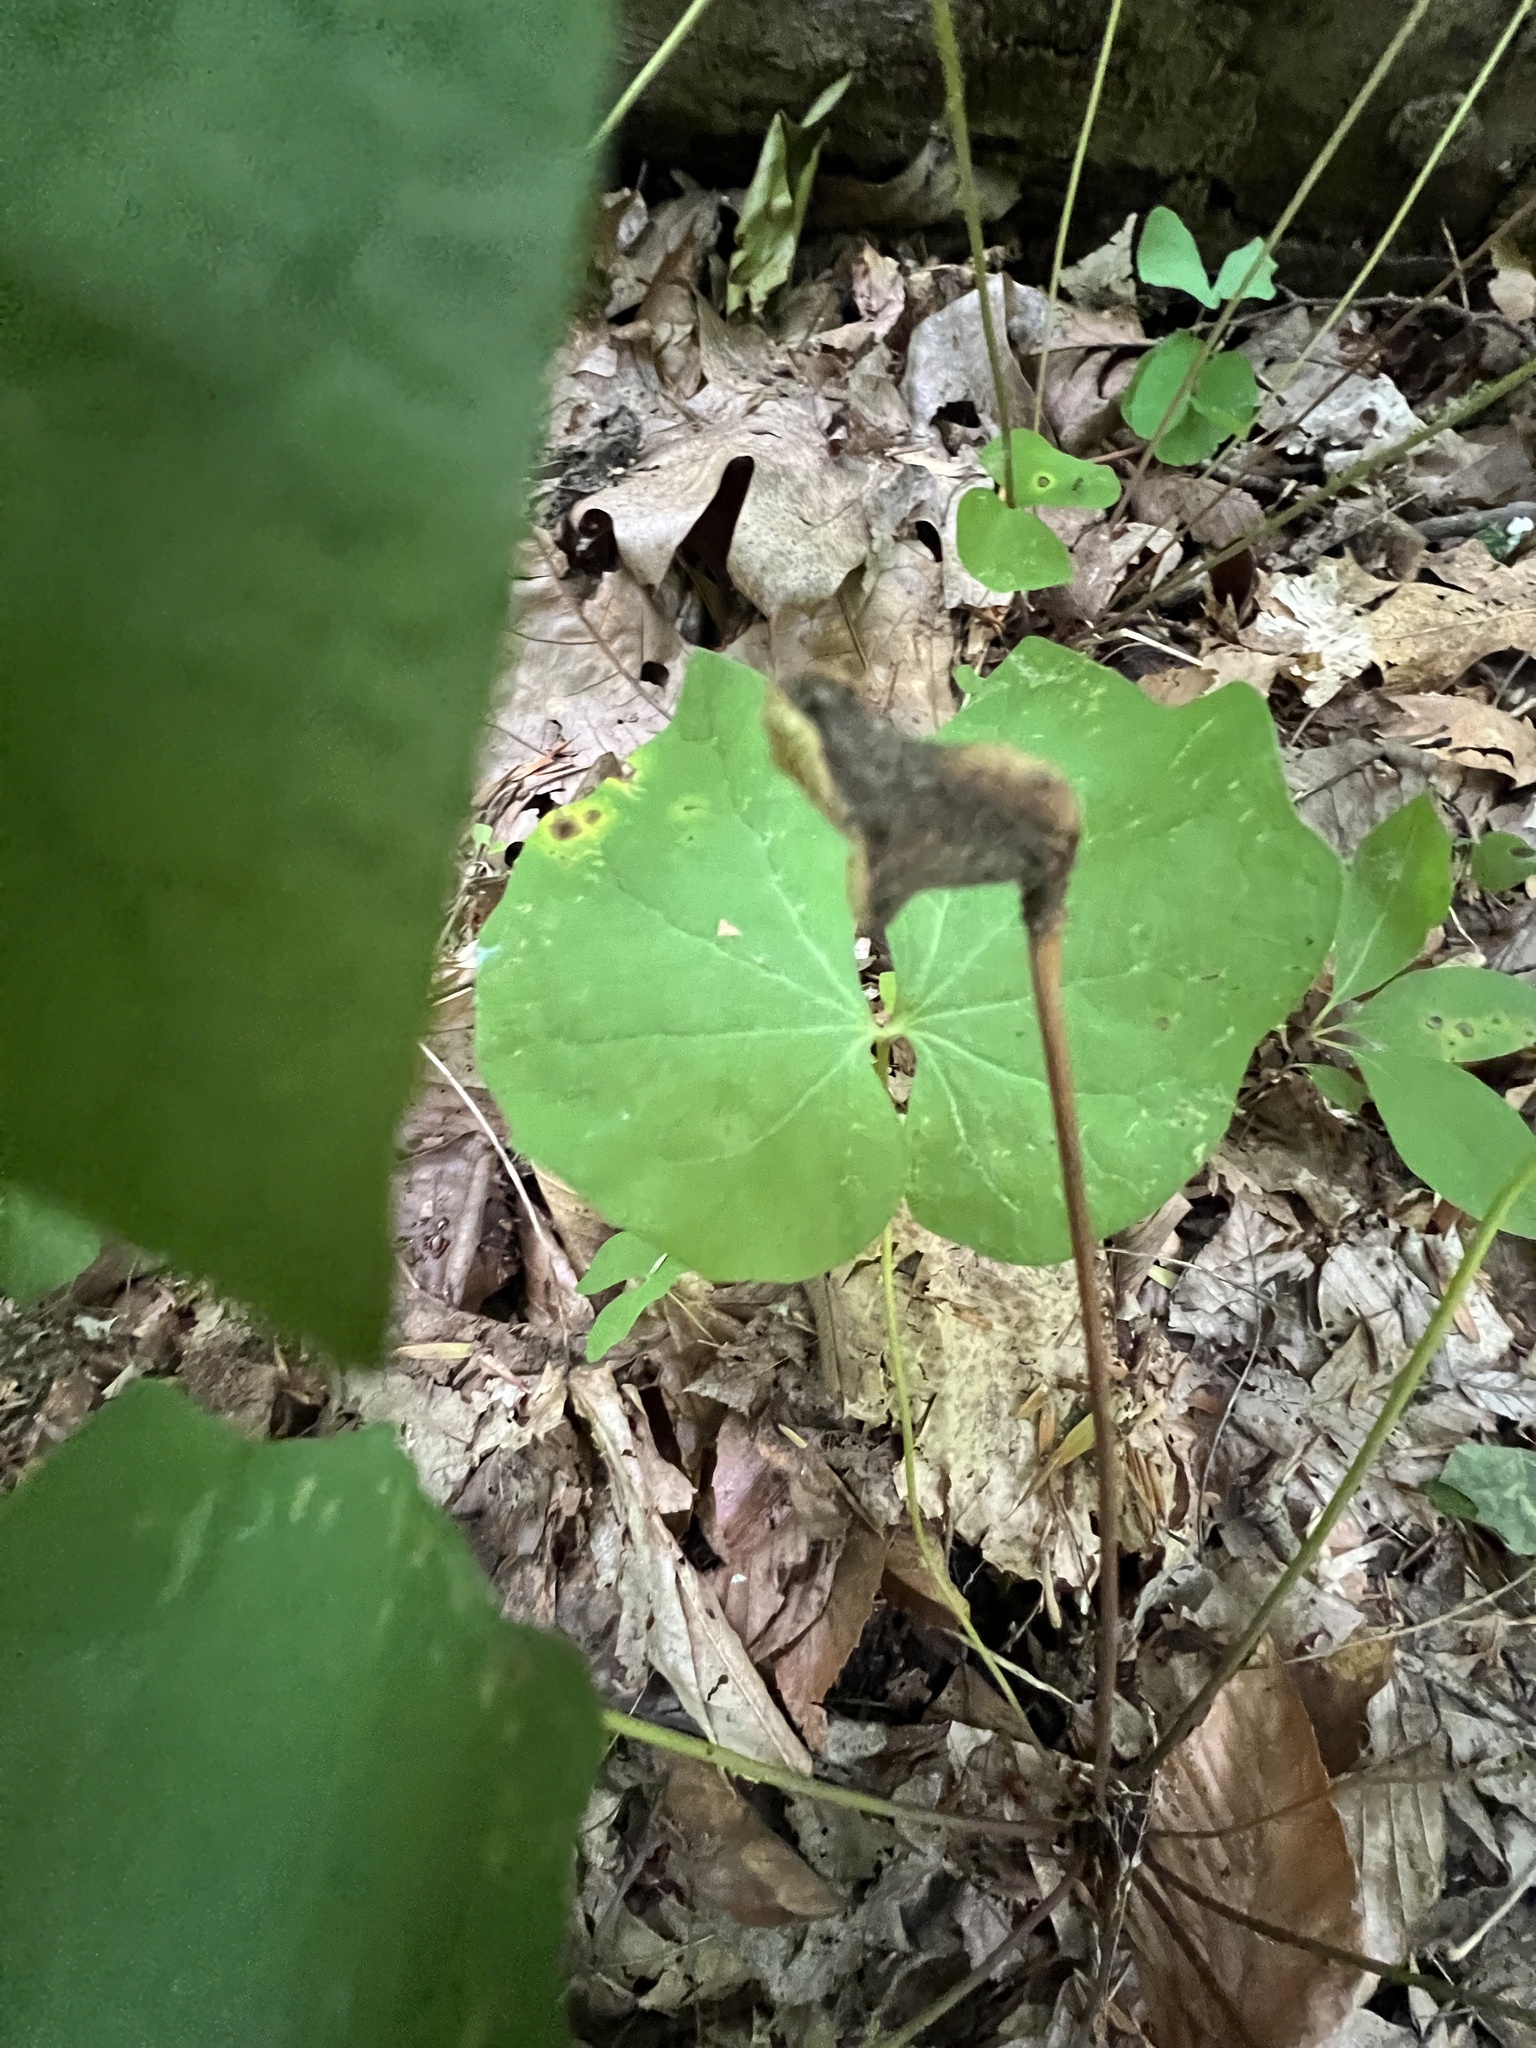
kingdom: Plantae
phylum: Tracheophyta
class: Magnoliopsida
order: Ranunculales
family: Berberidaceae
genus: Jeffersonia
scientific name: Jeffersonia diphylla
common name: Rheumatism-root
